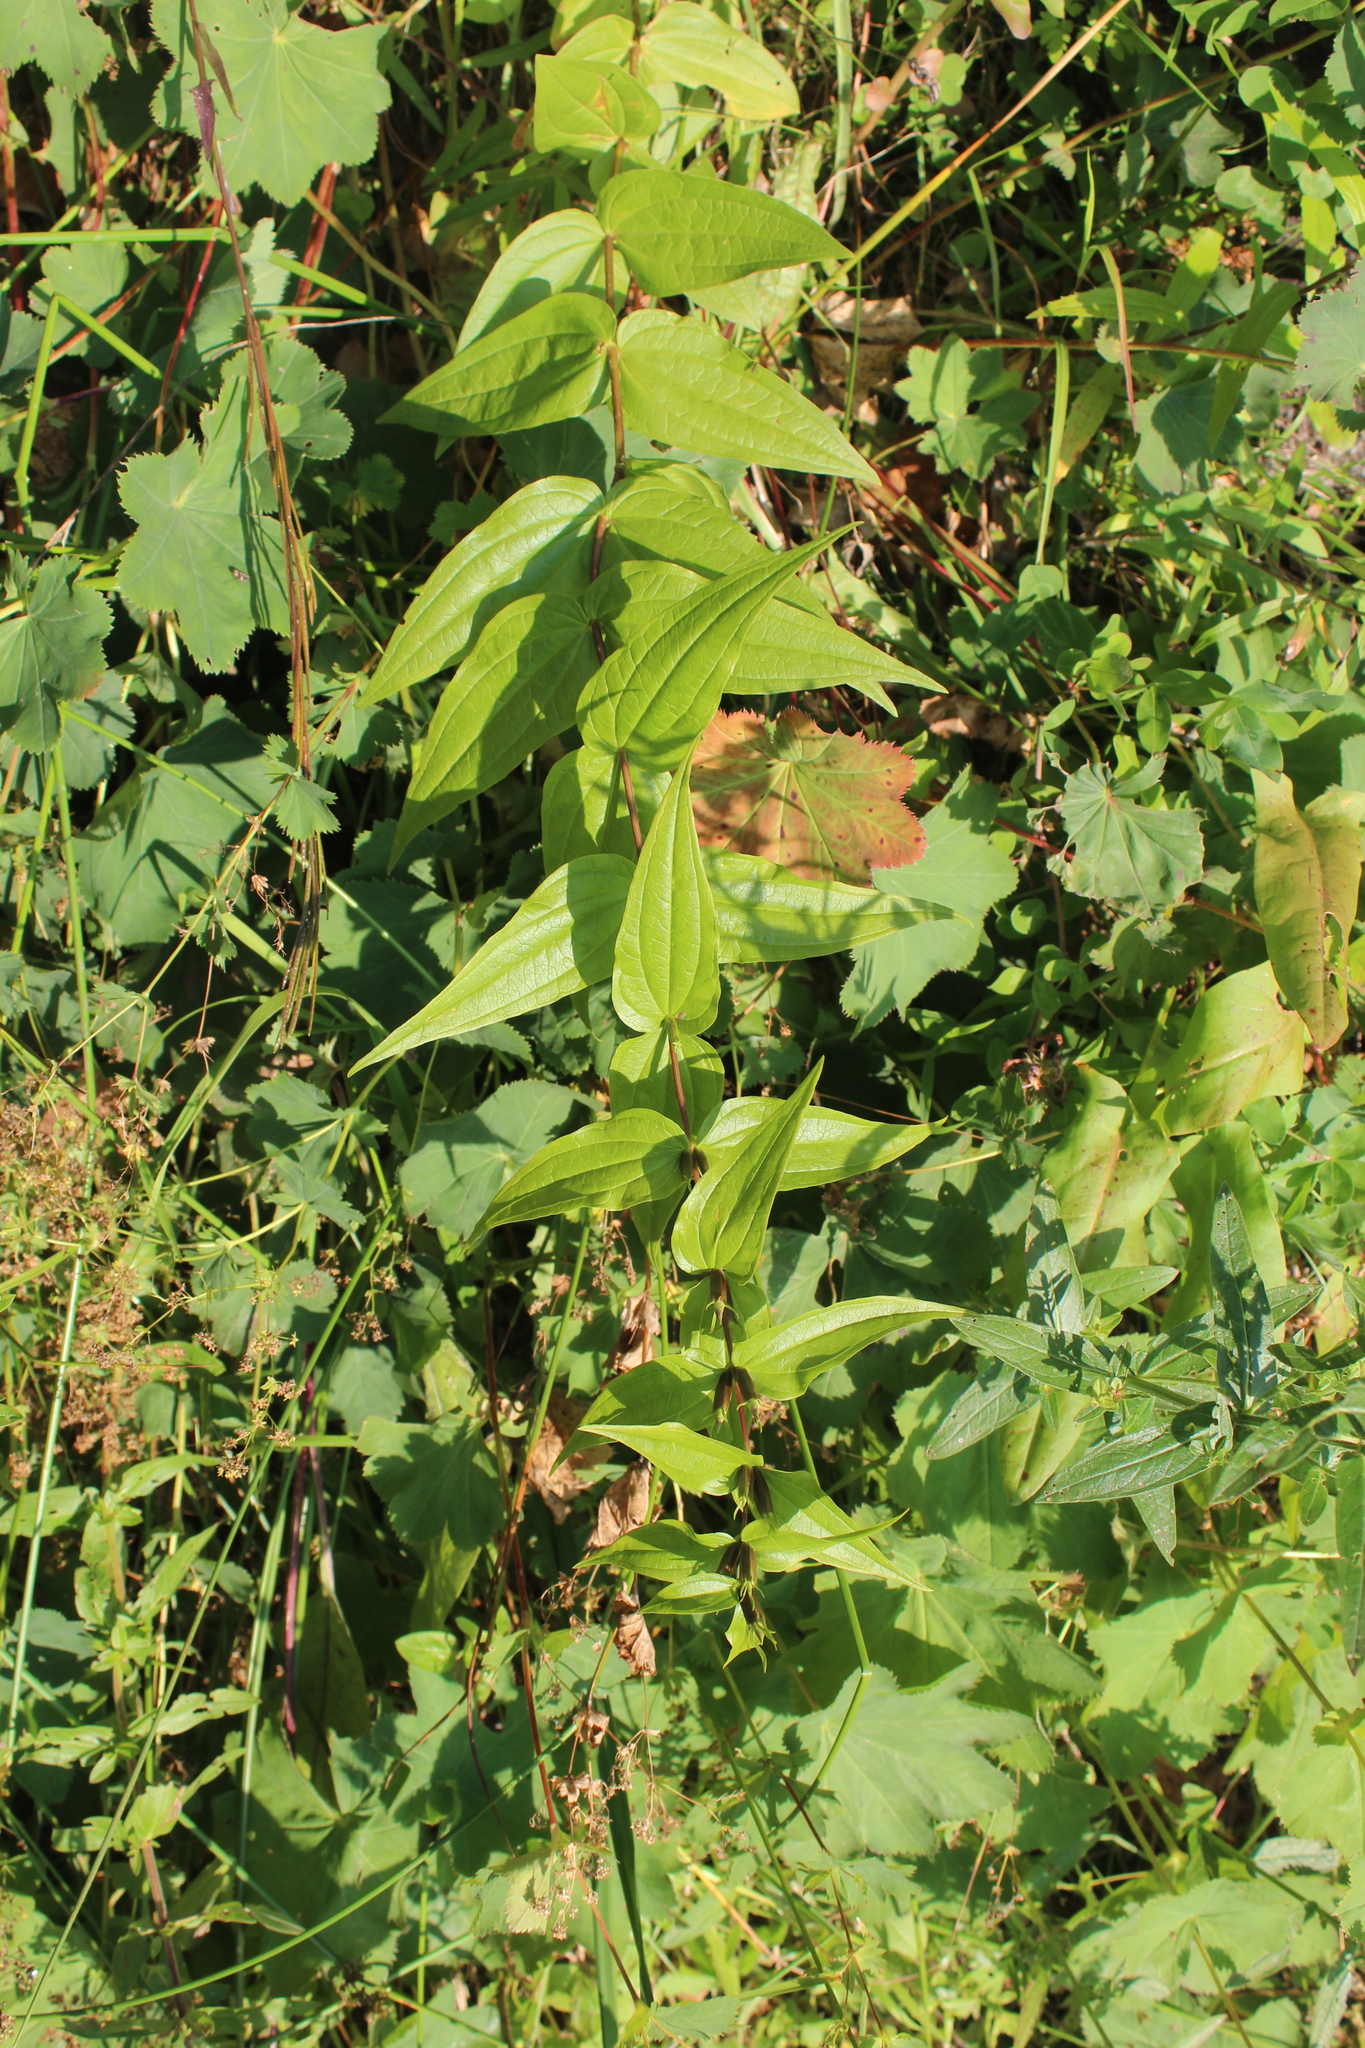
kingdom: Plantae
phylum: Tracheophyta
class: Magnoliopsida
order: Gentianales
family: Gentianaceae
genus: Gentiana
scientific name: Gentiana asclepiadea
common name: Willow gentian
